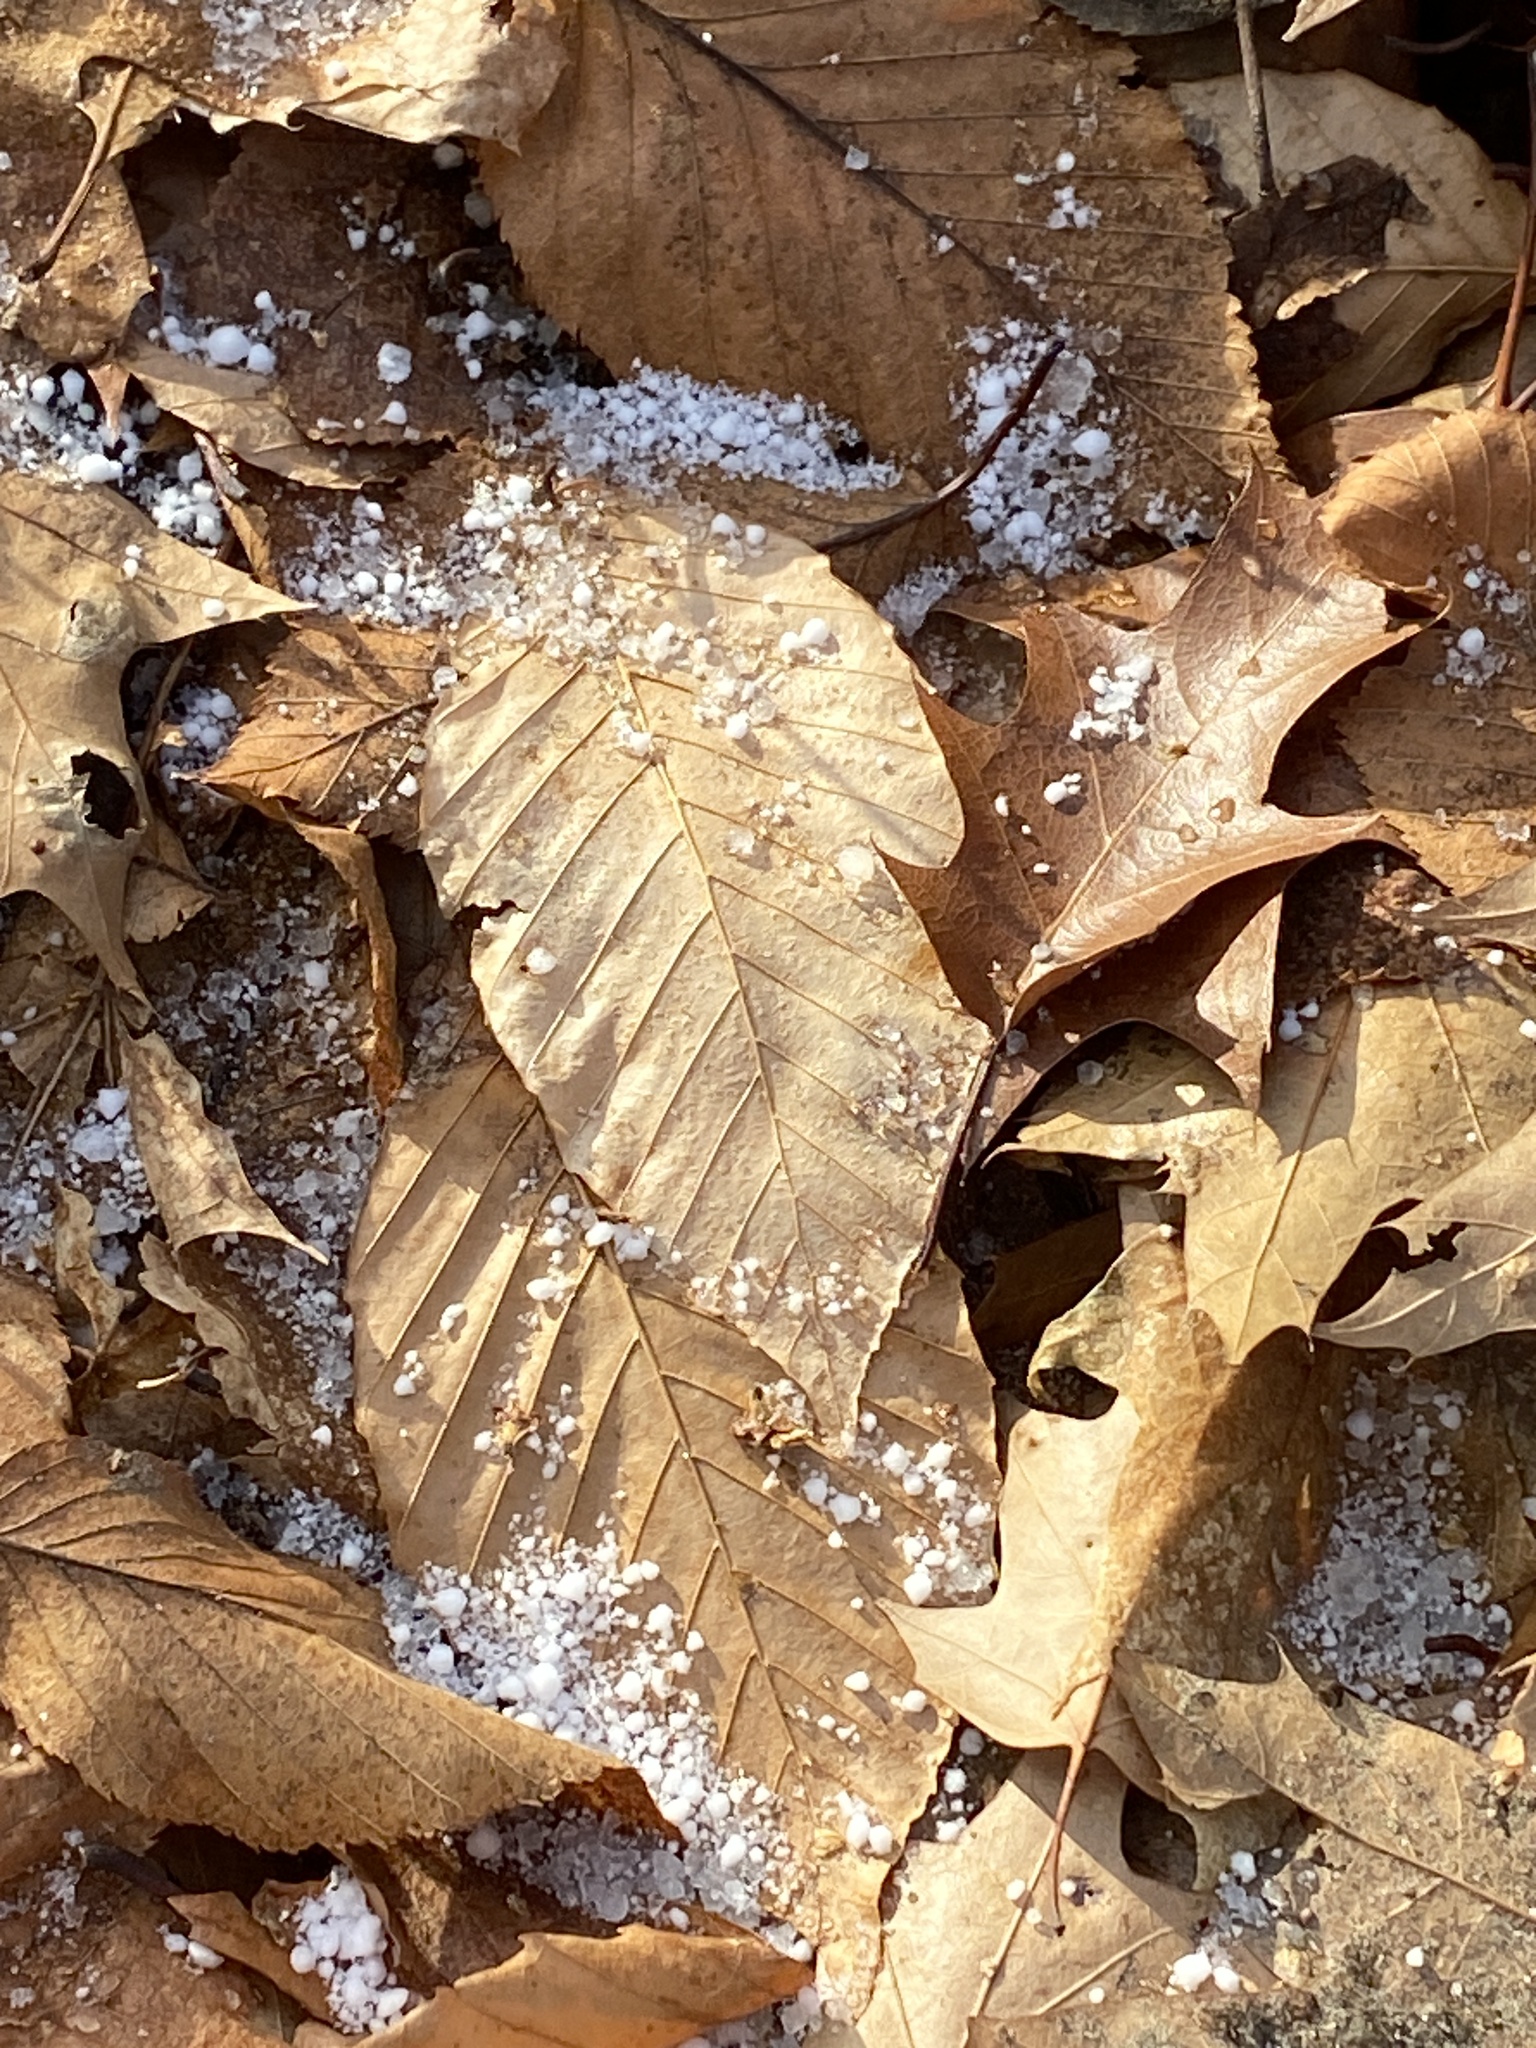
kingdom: Plantae
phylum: Tracheophyta
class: Magnoliopsida
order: Fagales
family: Fagaceae
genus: Fagus
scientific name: Fagus grandifolia
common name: American beech
